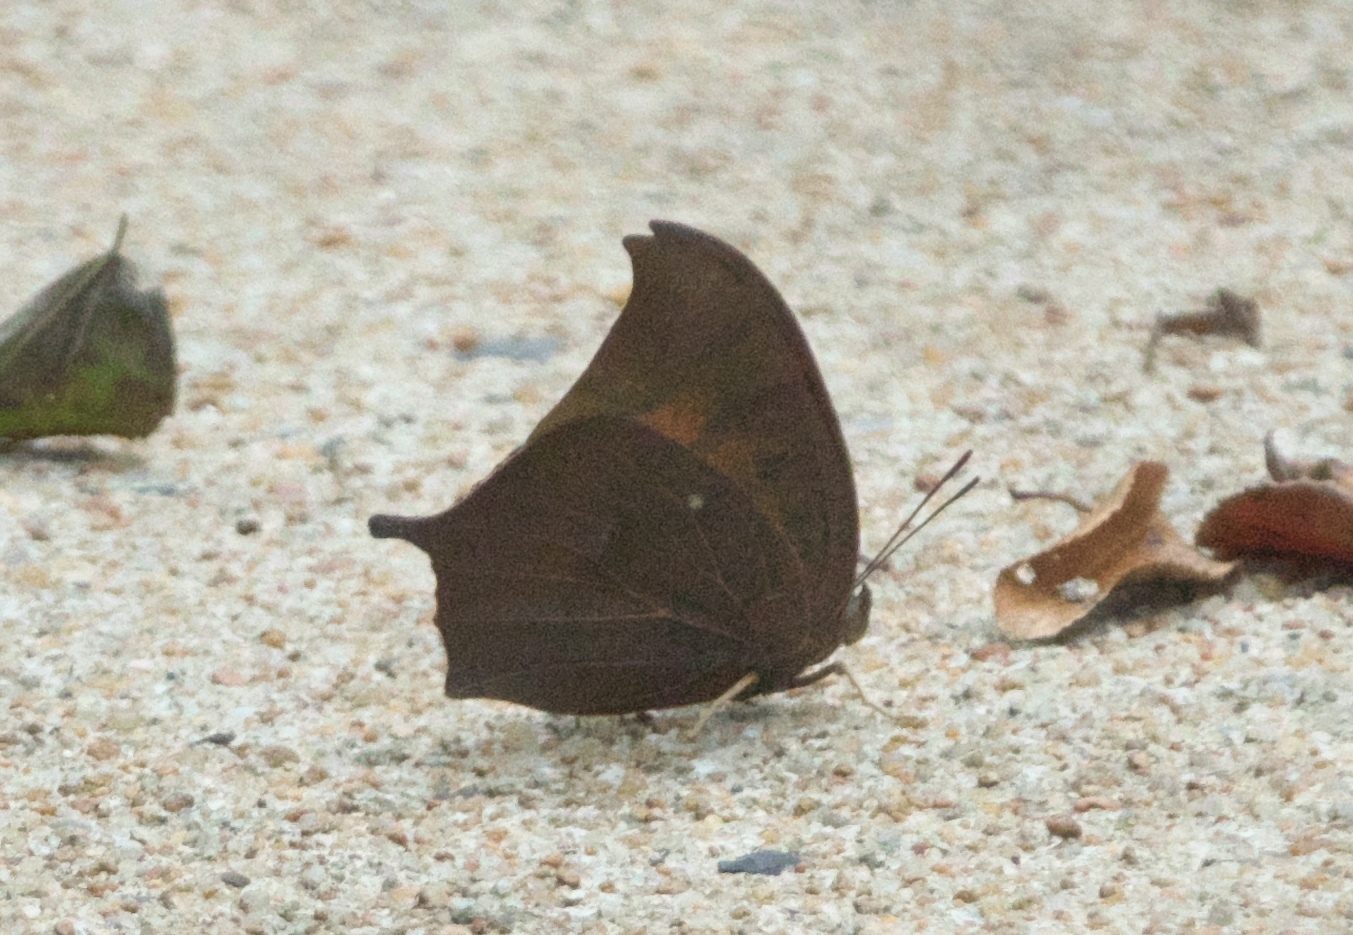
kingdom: Animalia
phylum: Arthropoda
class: Insecta
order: Lepidoptera
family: Nymphalidae
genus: Anaea
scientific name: Anaea andria
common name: Goatweed leafwing
